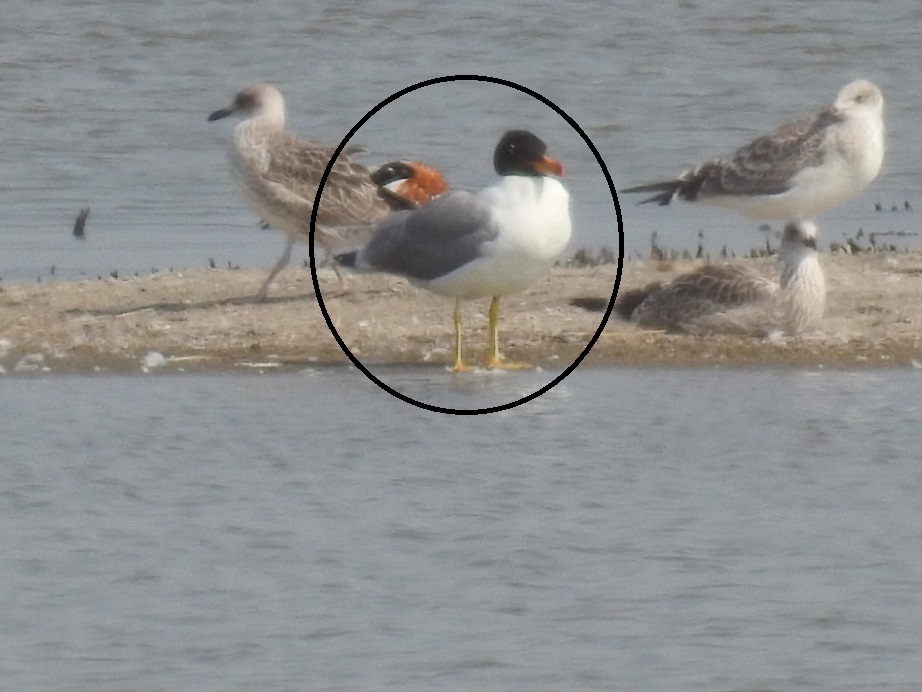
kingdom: Animalia
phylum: Chordata
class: Aves
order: Charadriiformes
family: Laridae
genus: Ichthyaetus
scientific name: Ichthyaetus ichthyaetus
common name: Pallas's gull
